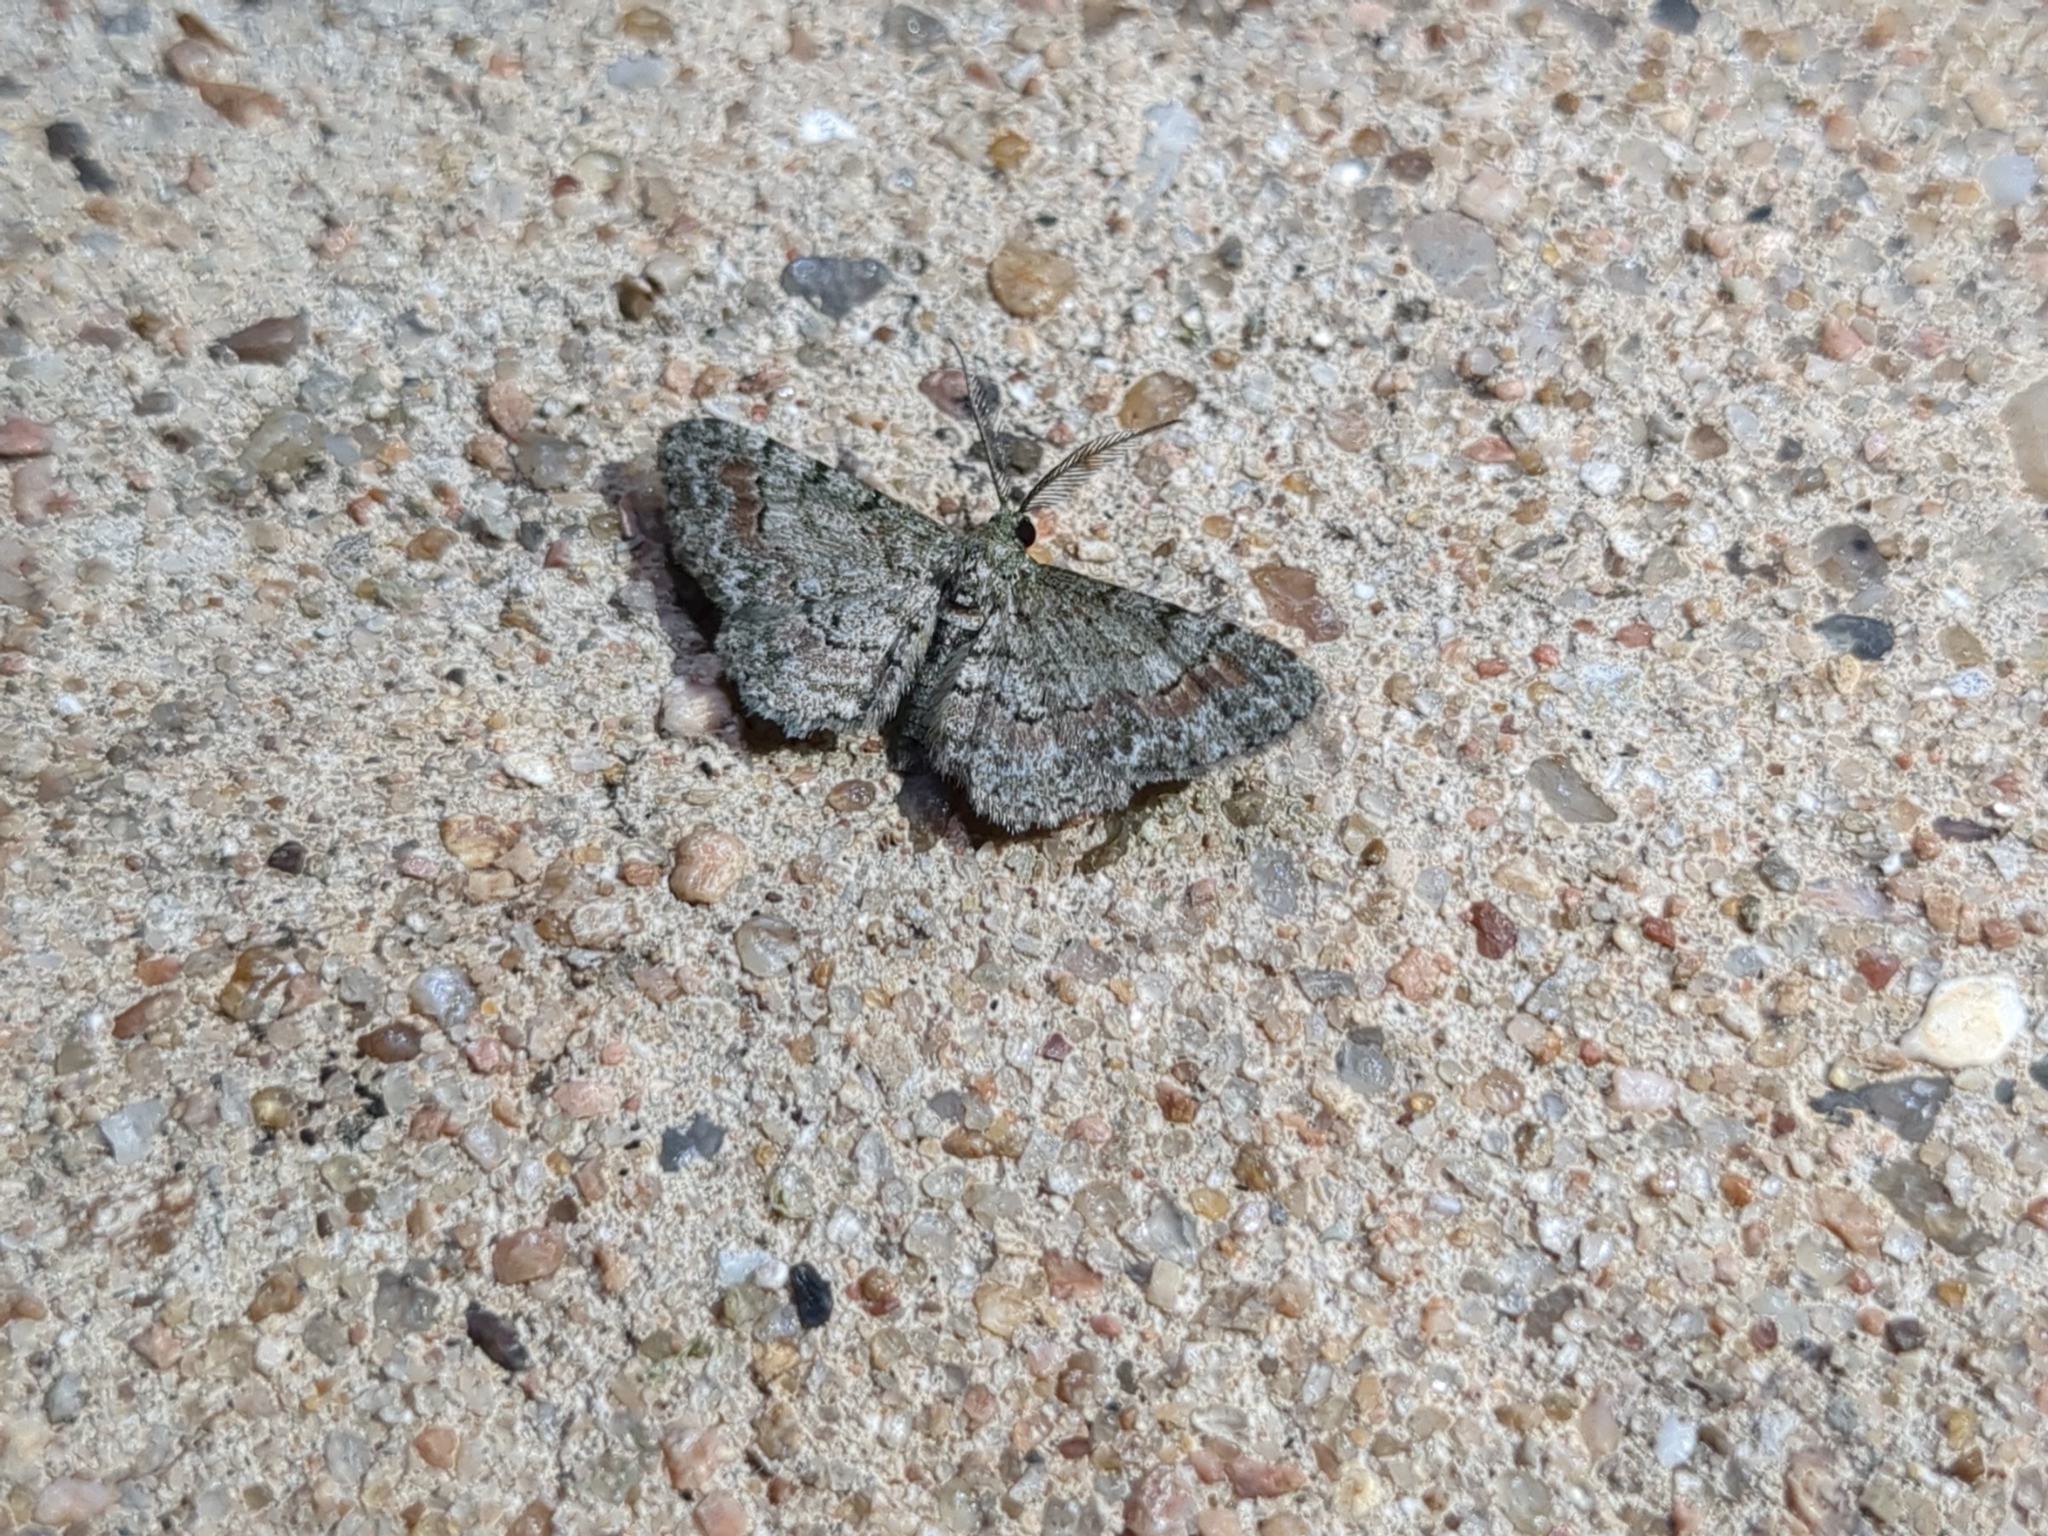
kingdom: Animalia
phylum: Arthropoda
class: Insecta
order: Lepidoptera
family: Geometridae
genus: Glenoides
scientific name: Glenoides texanaria
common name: Texas gray
